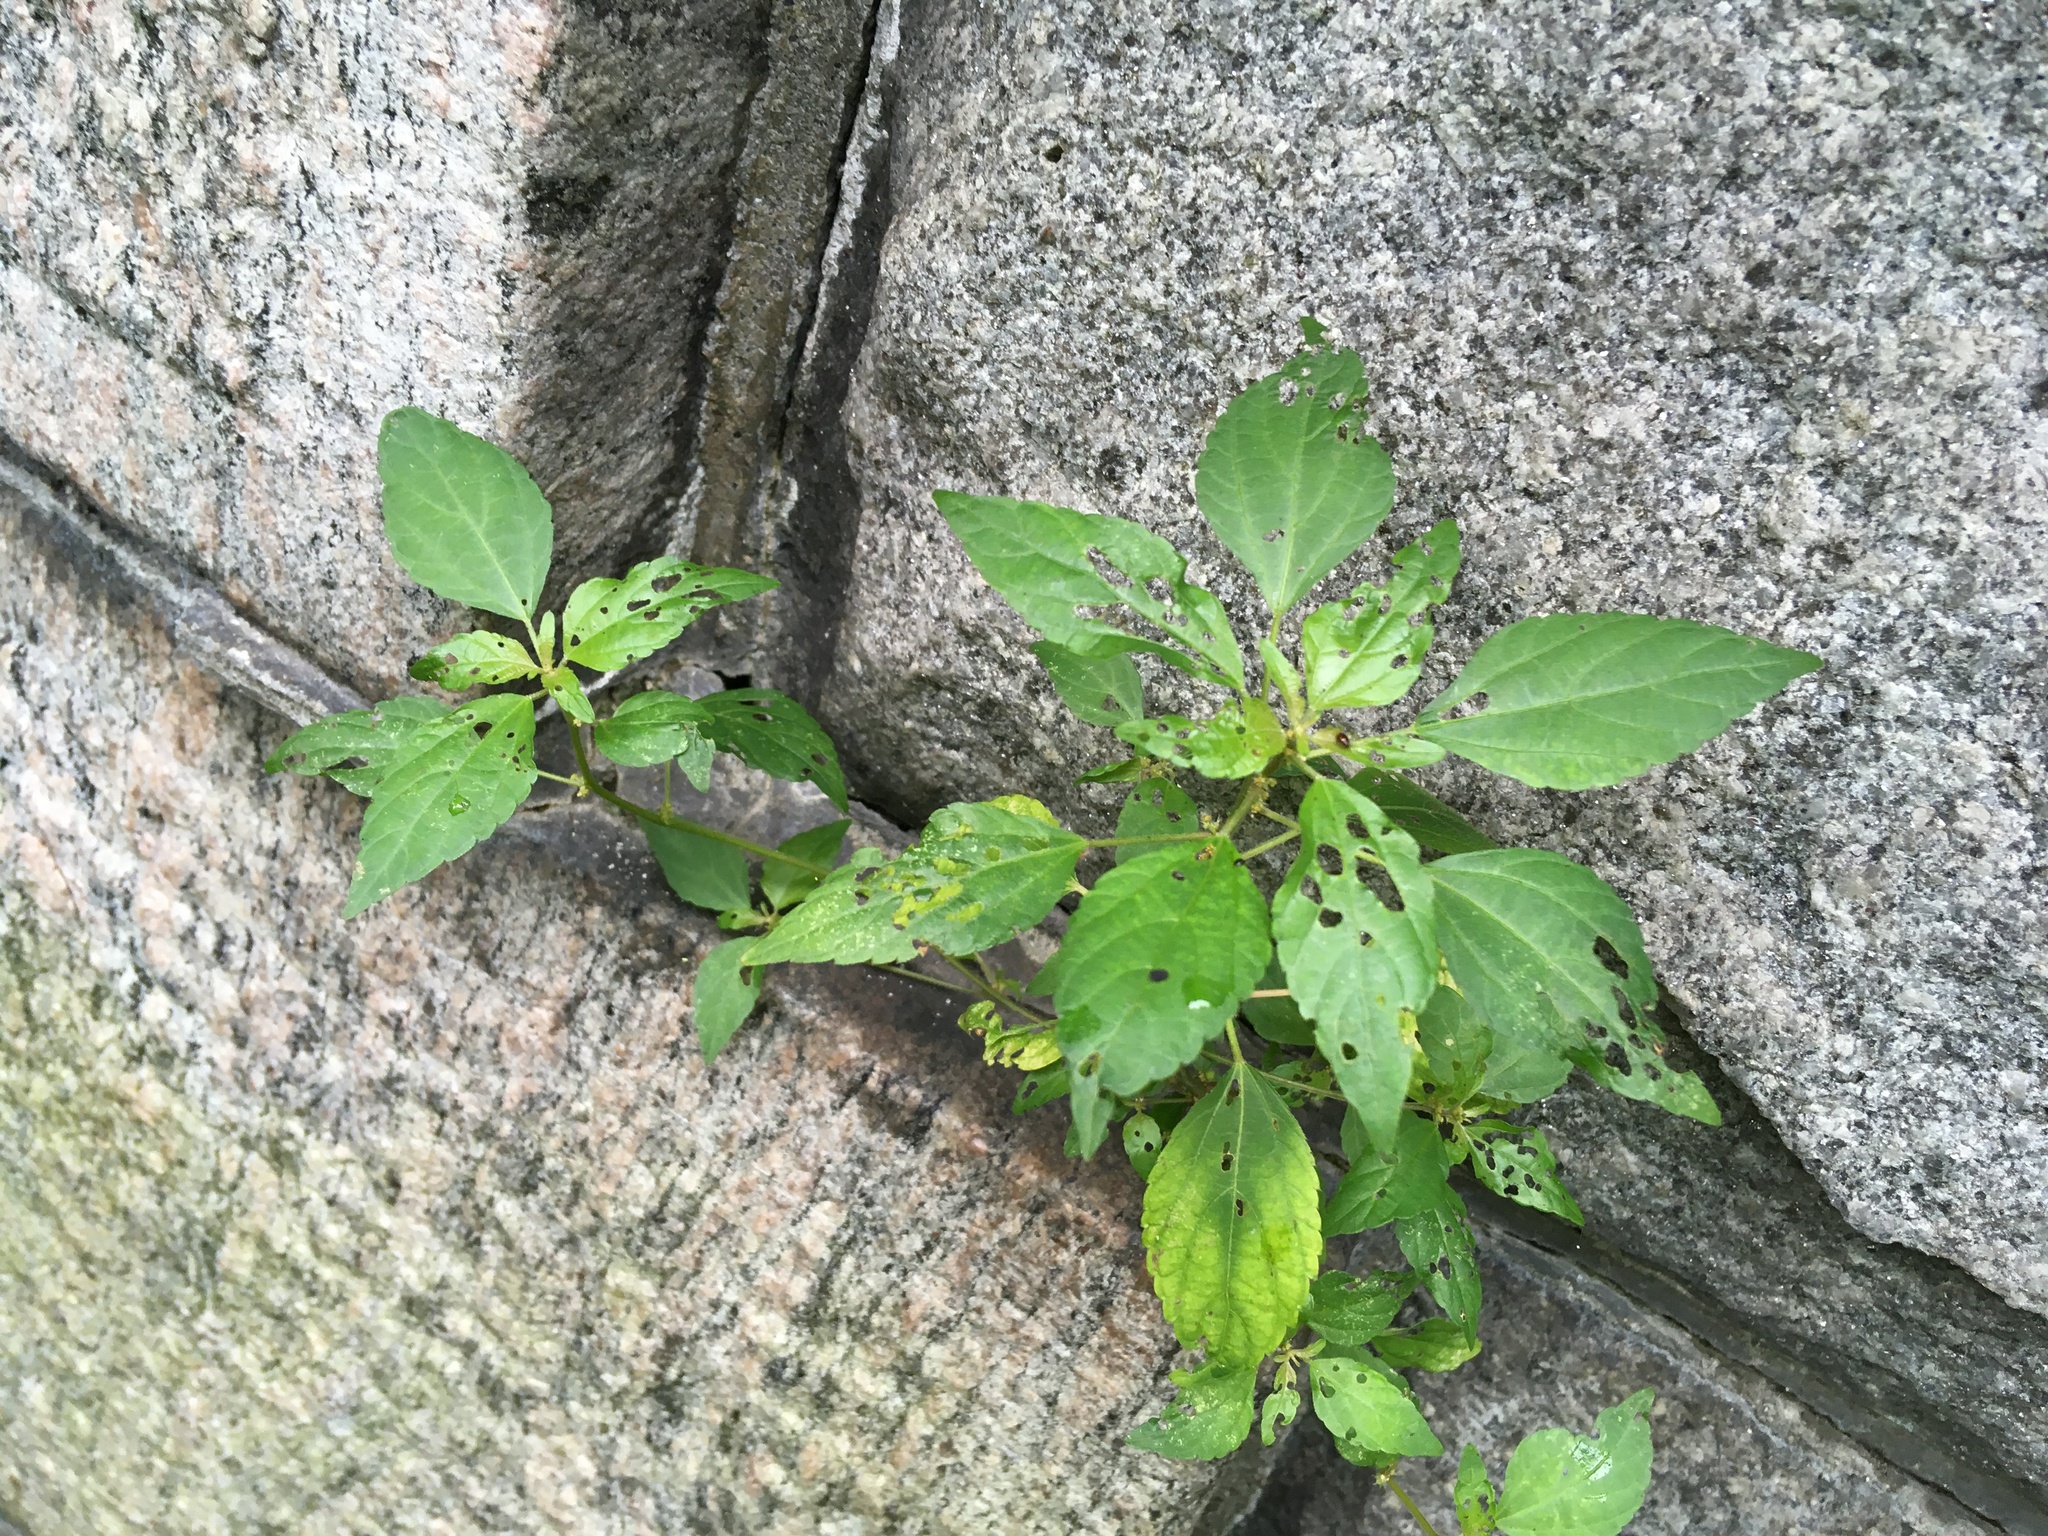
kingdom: Plantae
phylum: Tracheophyta
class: Magnoliopsida
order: Malpighiales
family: Euphorbiaceae
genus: Acalypha
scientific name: Acalypha rhomboidea
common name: Rhombic copperleaf
